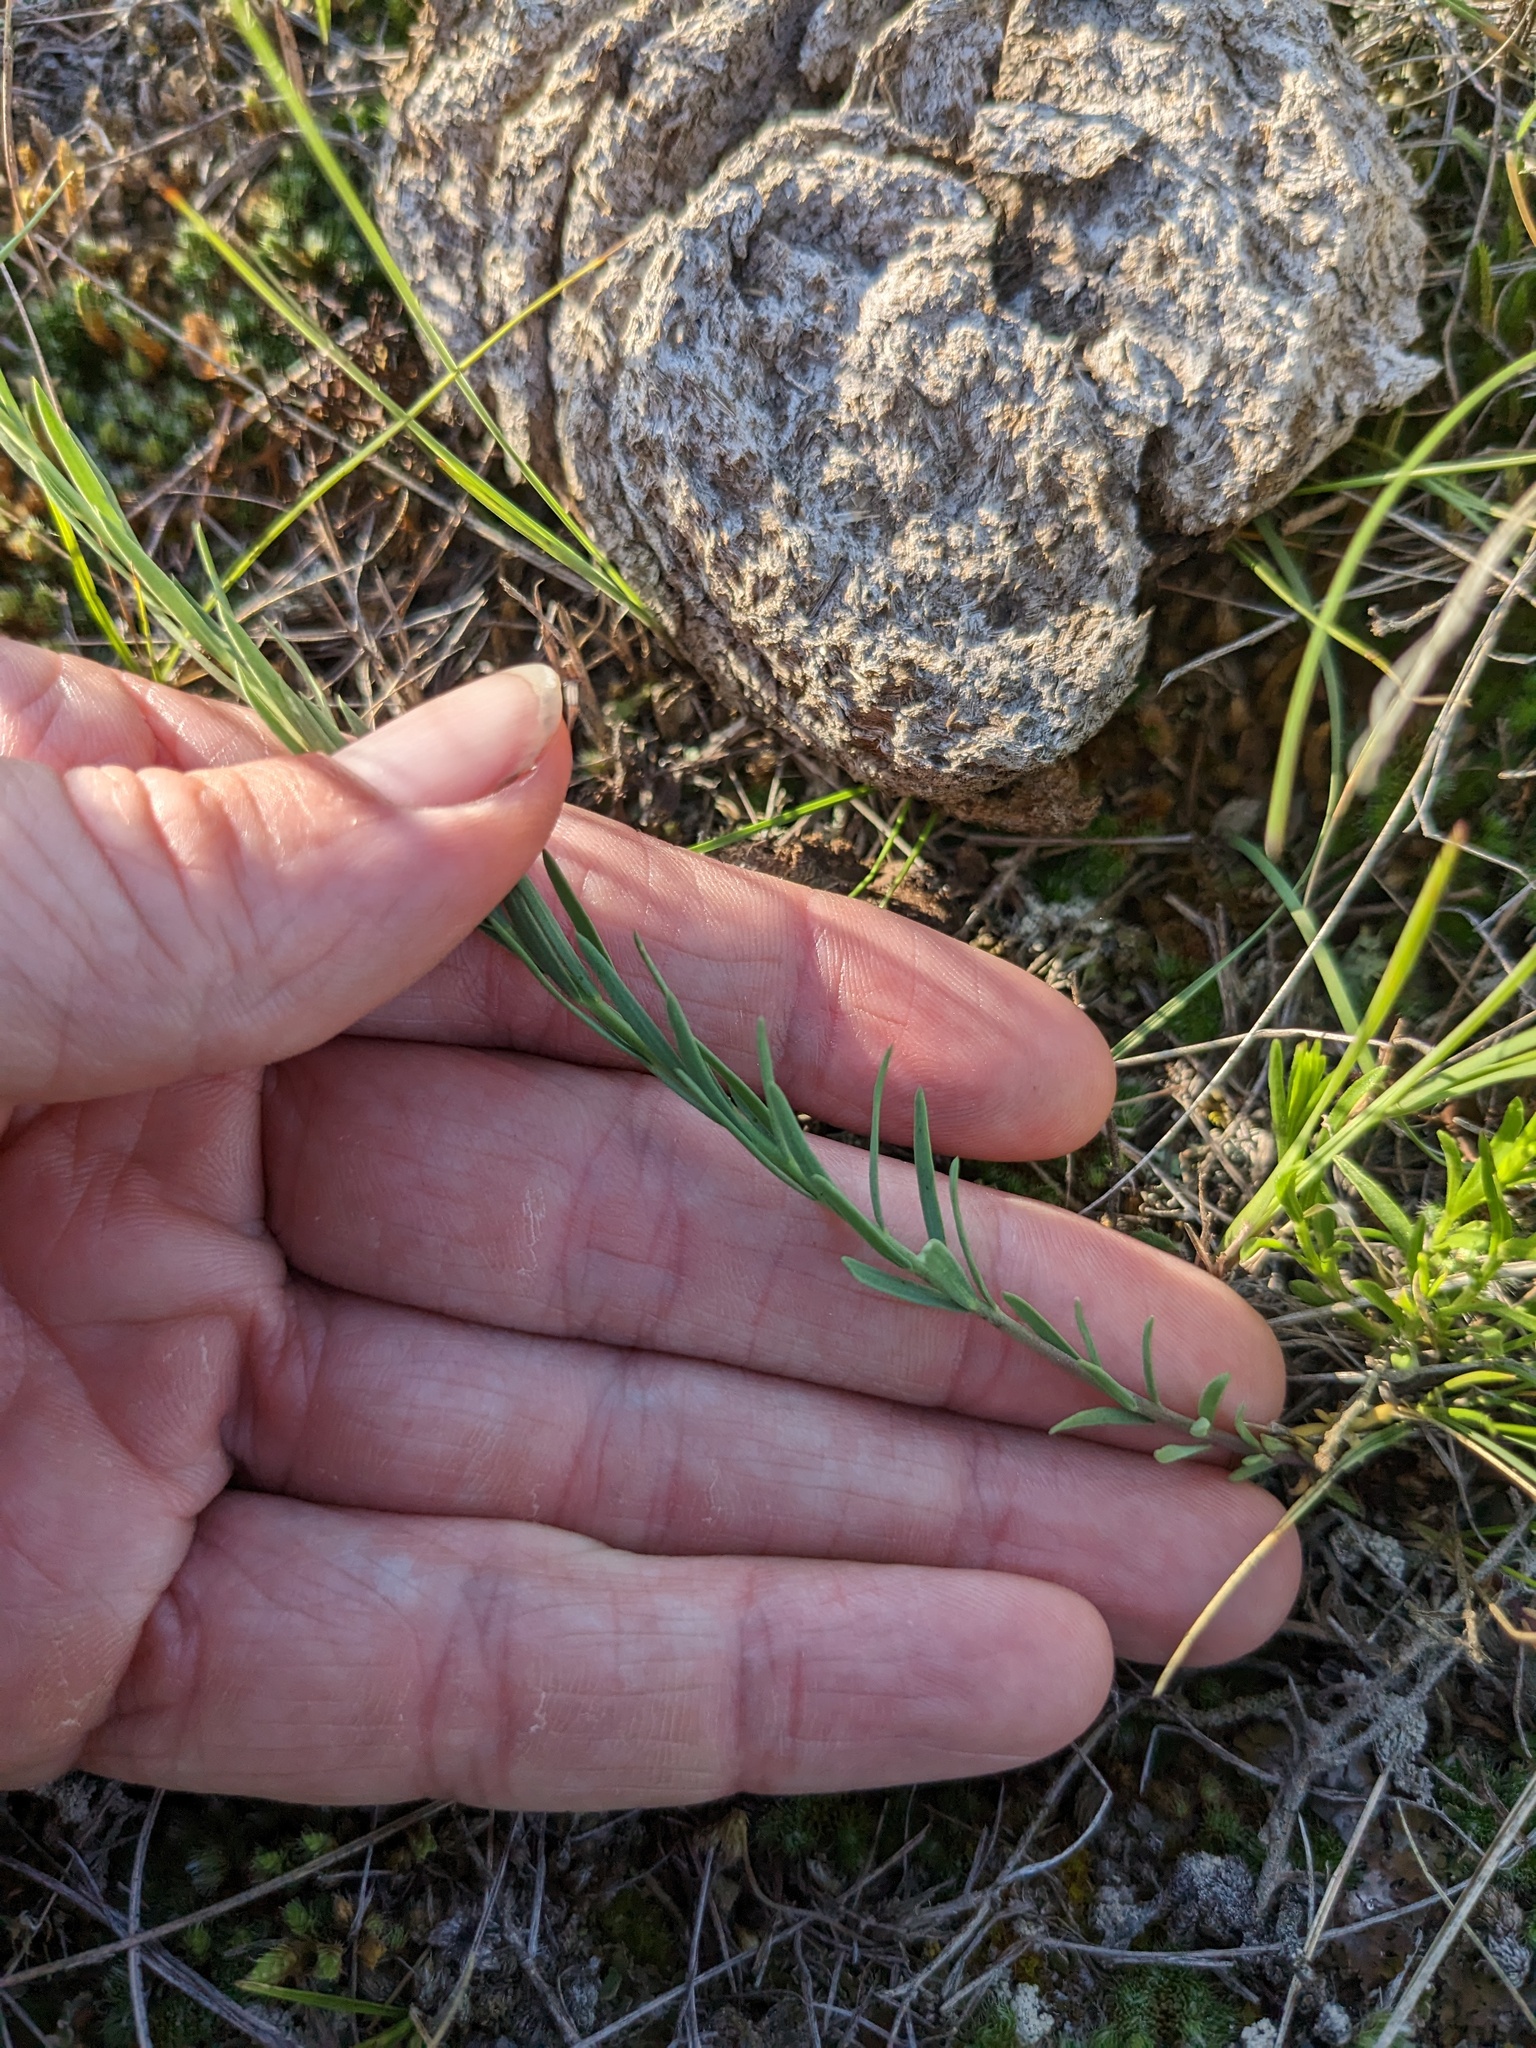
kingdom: Plantae
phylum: Tracheophyta
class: Magnoliopsida
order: Malpighiales
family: Linaceae
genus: Linum
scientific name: Linum lewisii
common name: Prairie flax
